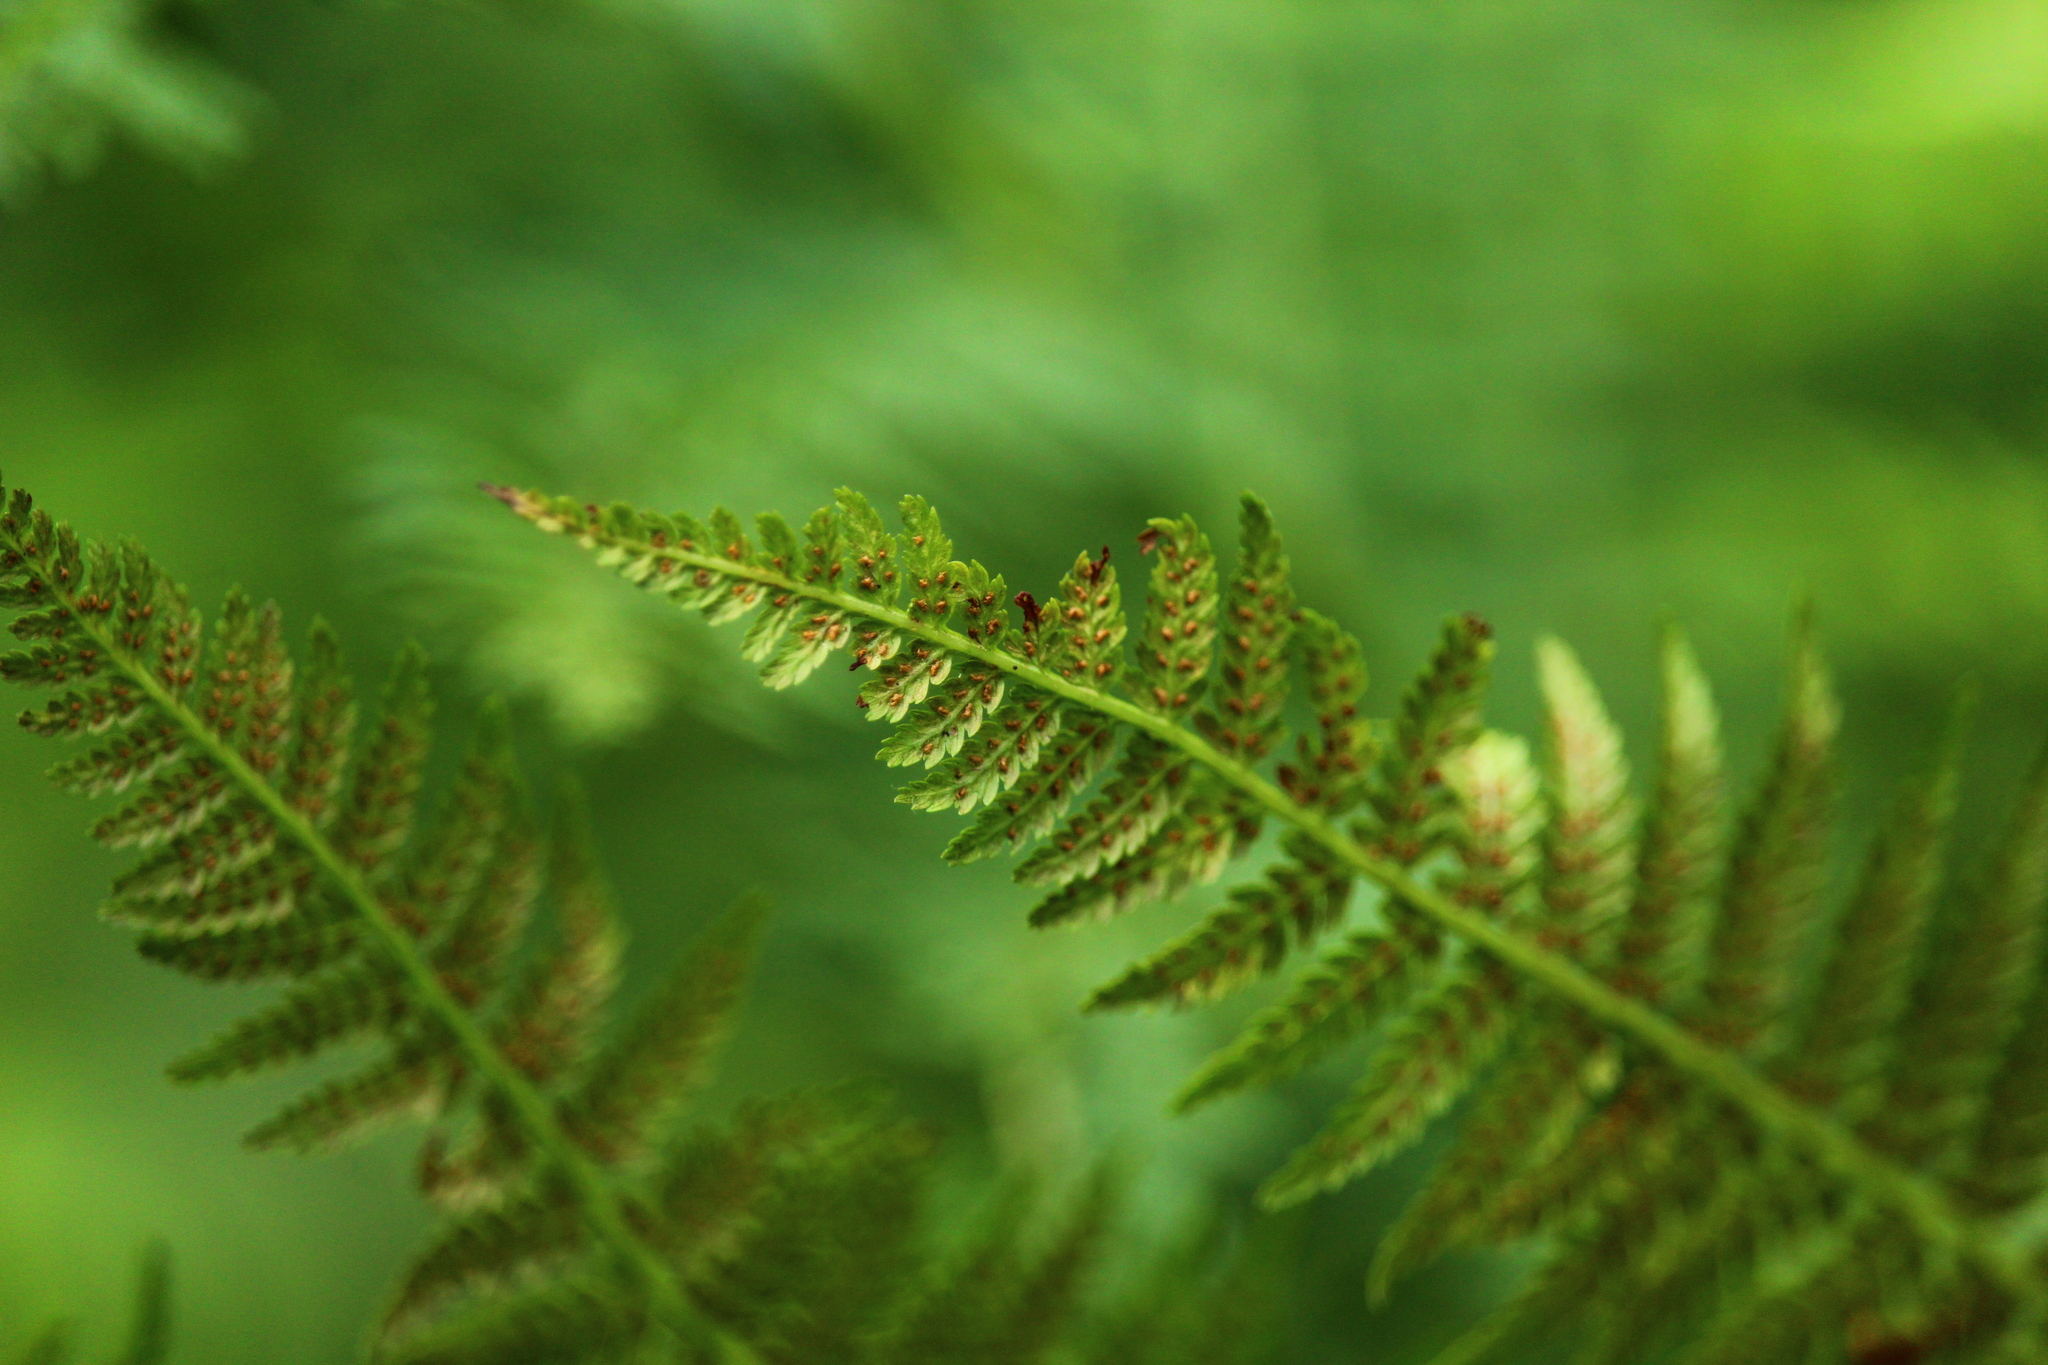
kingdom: Plantae
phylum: Tracheophyta
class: Polypodiopsida
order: Polypodiales
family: Athyriaceae
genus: Athyrium
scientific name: Athyrium filix-femina
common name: Lady fern
